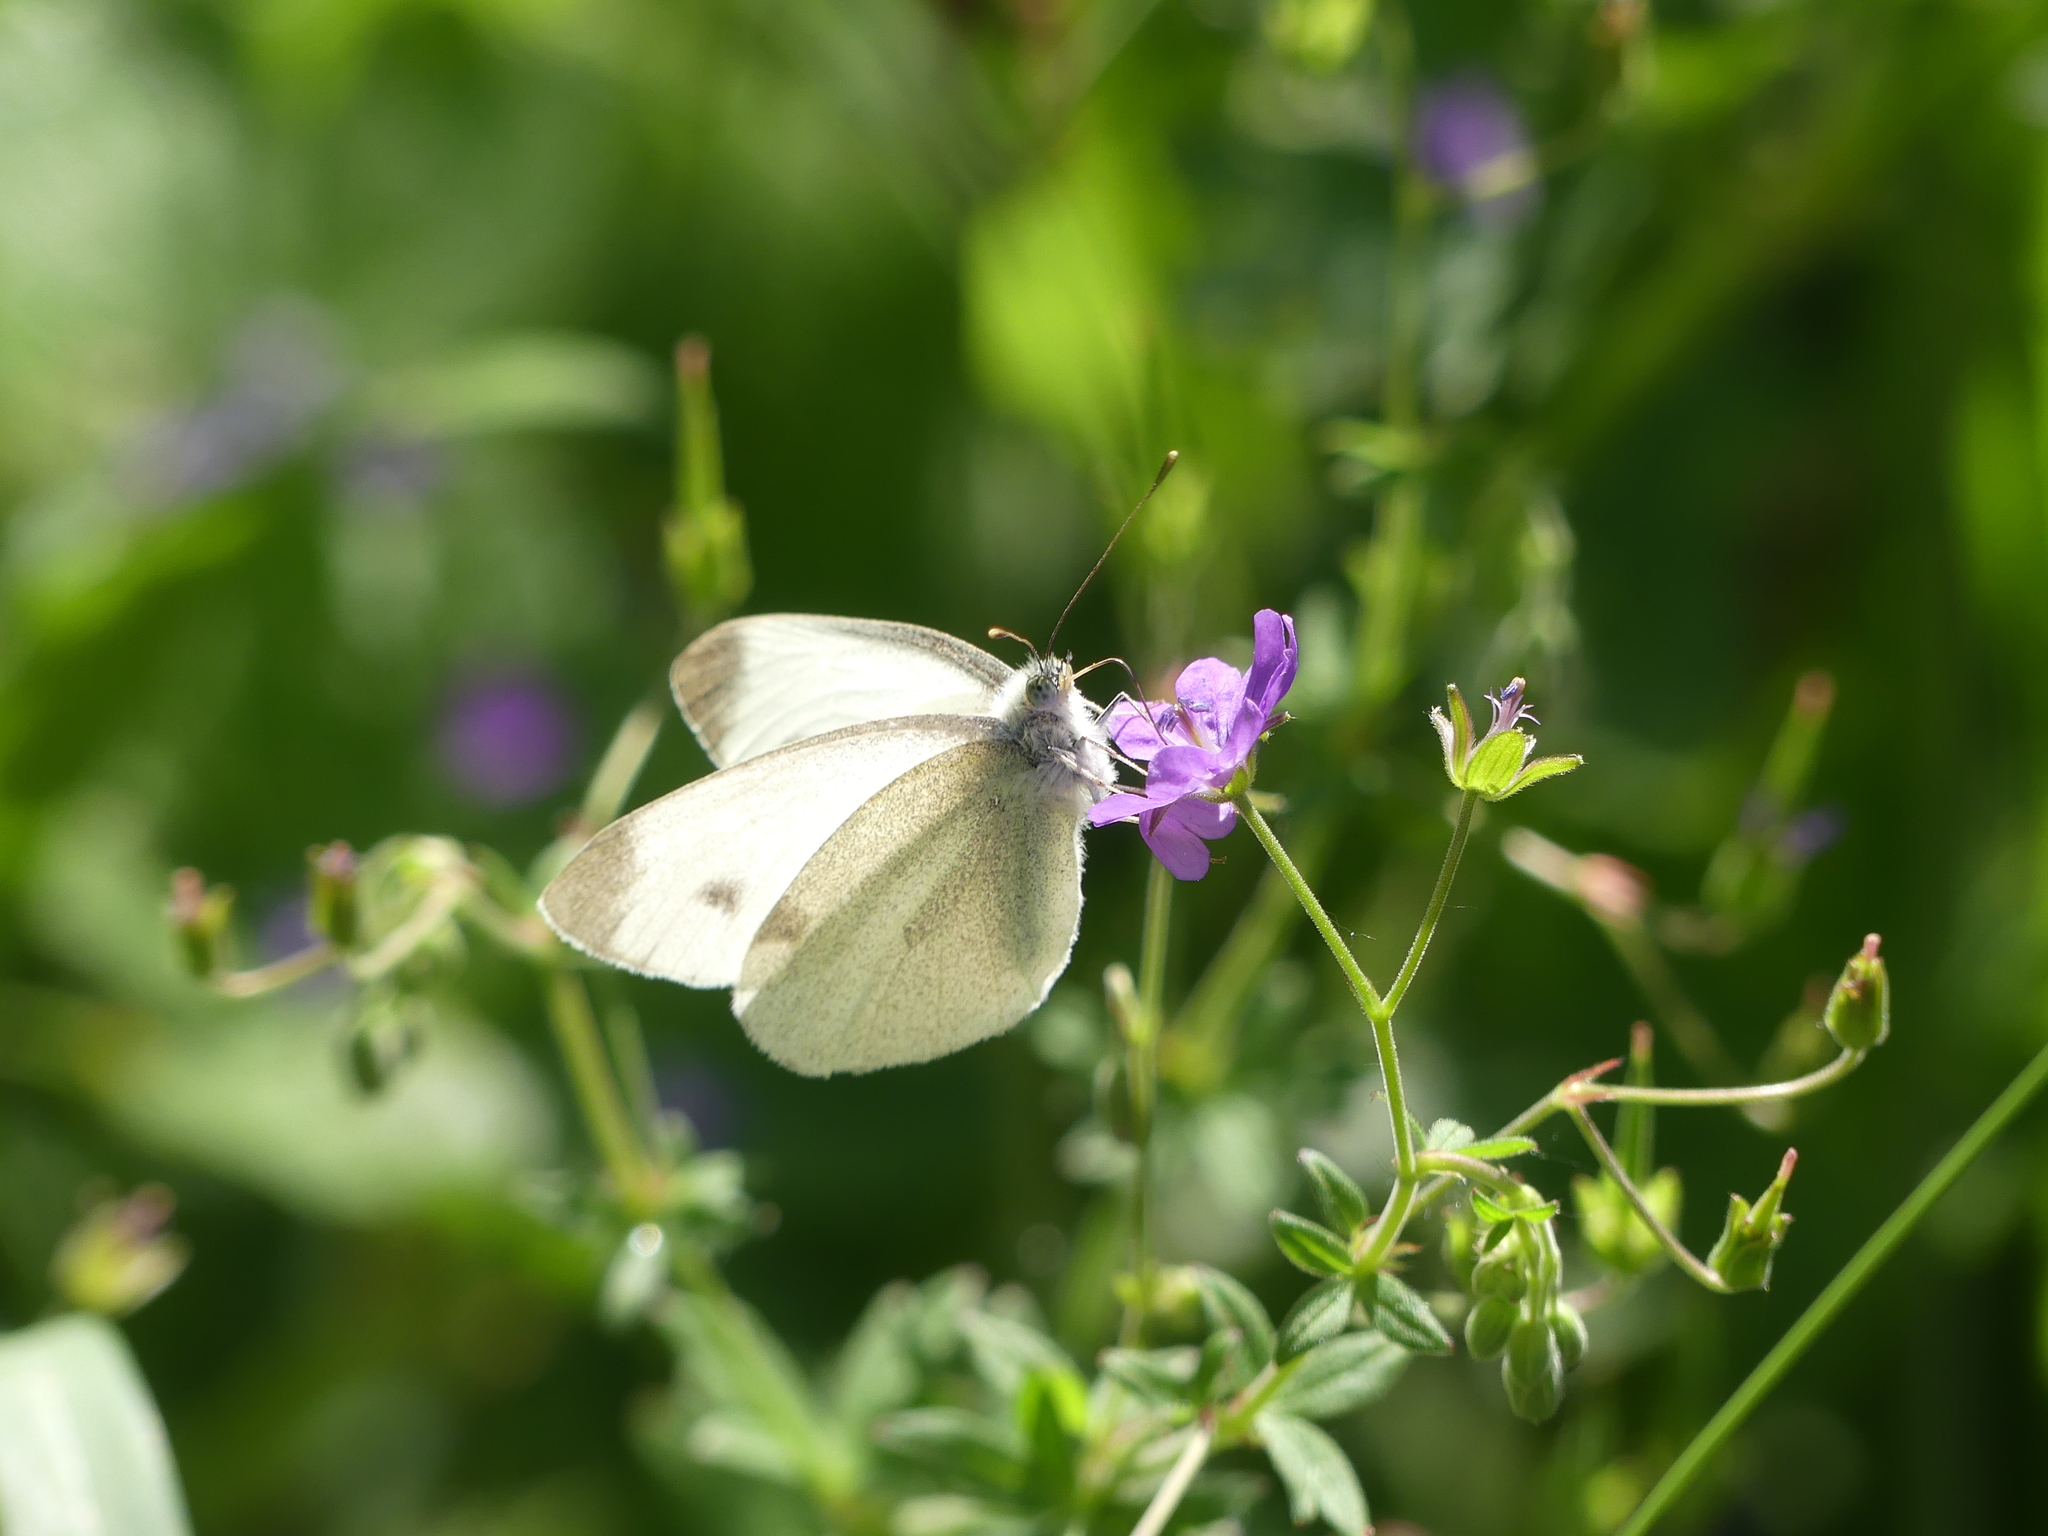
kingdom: Animalia
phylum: Arthropoda
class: Insecta
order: Lepidoptera
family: Pieridae
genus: Pieris
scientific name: Pieris mannii
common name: Southern small white
